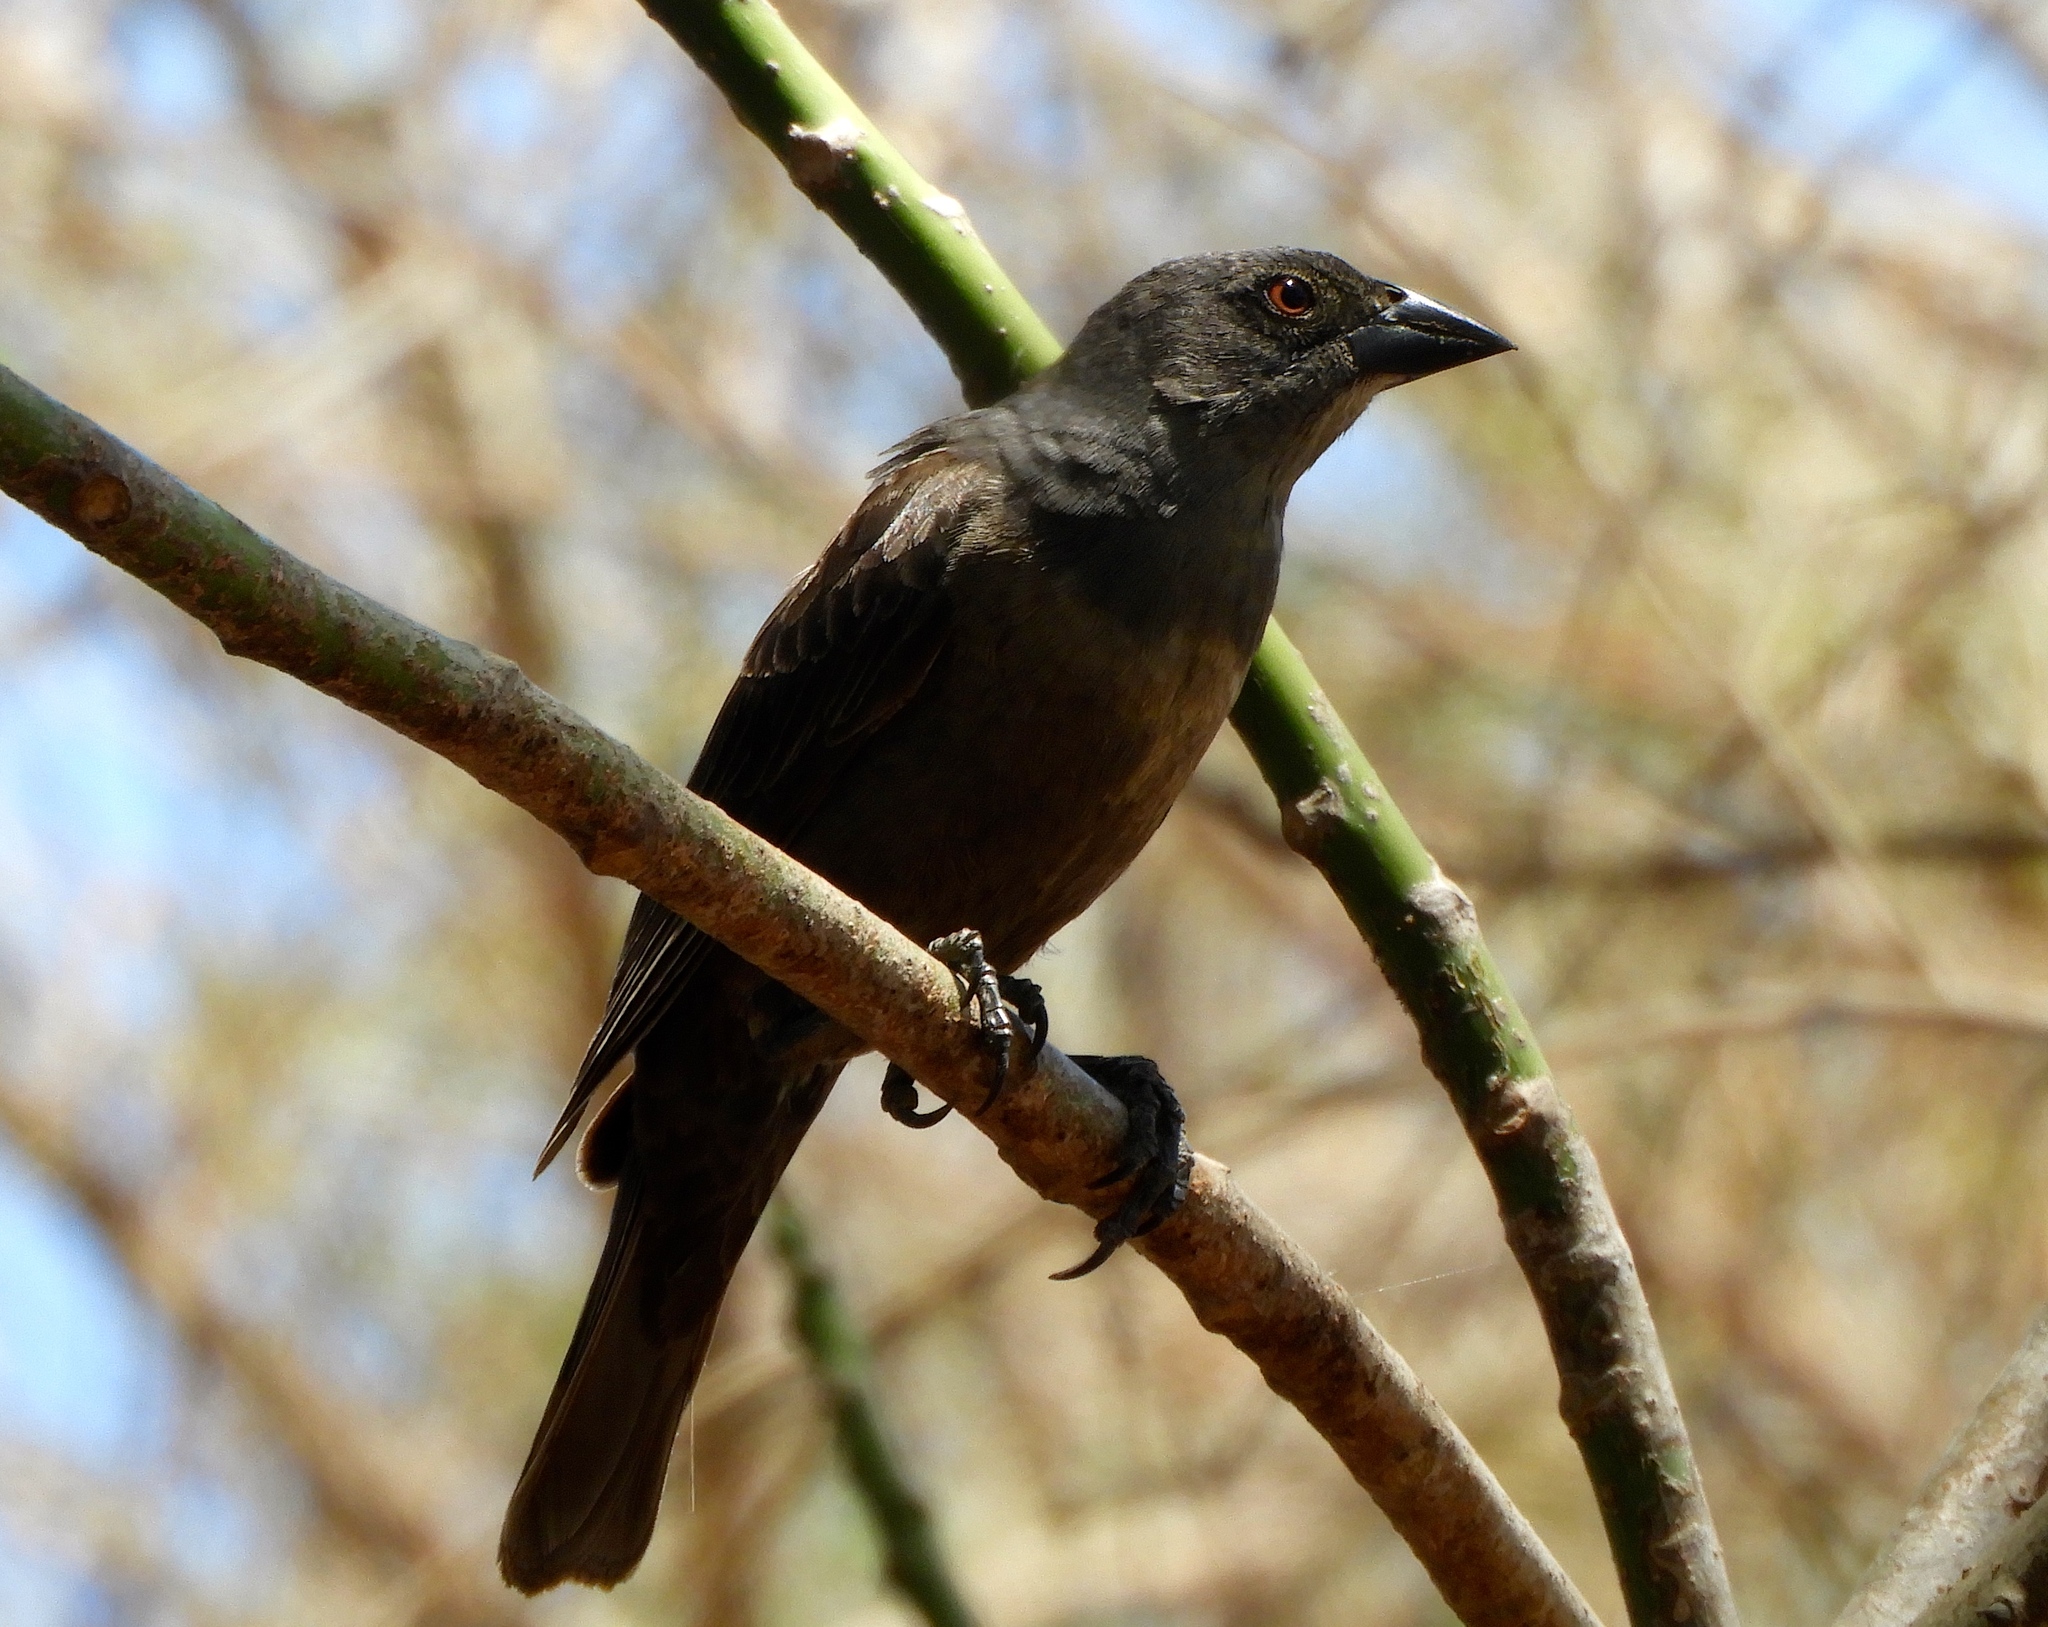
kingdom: Animalia
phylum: Chordata
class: Aves
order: Passeriformes
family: Icteridae
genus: Molothrus
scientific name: Molothrus aeneus
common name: Bronzed cowbird
